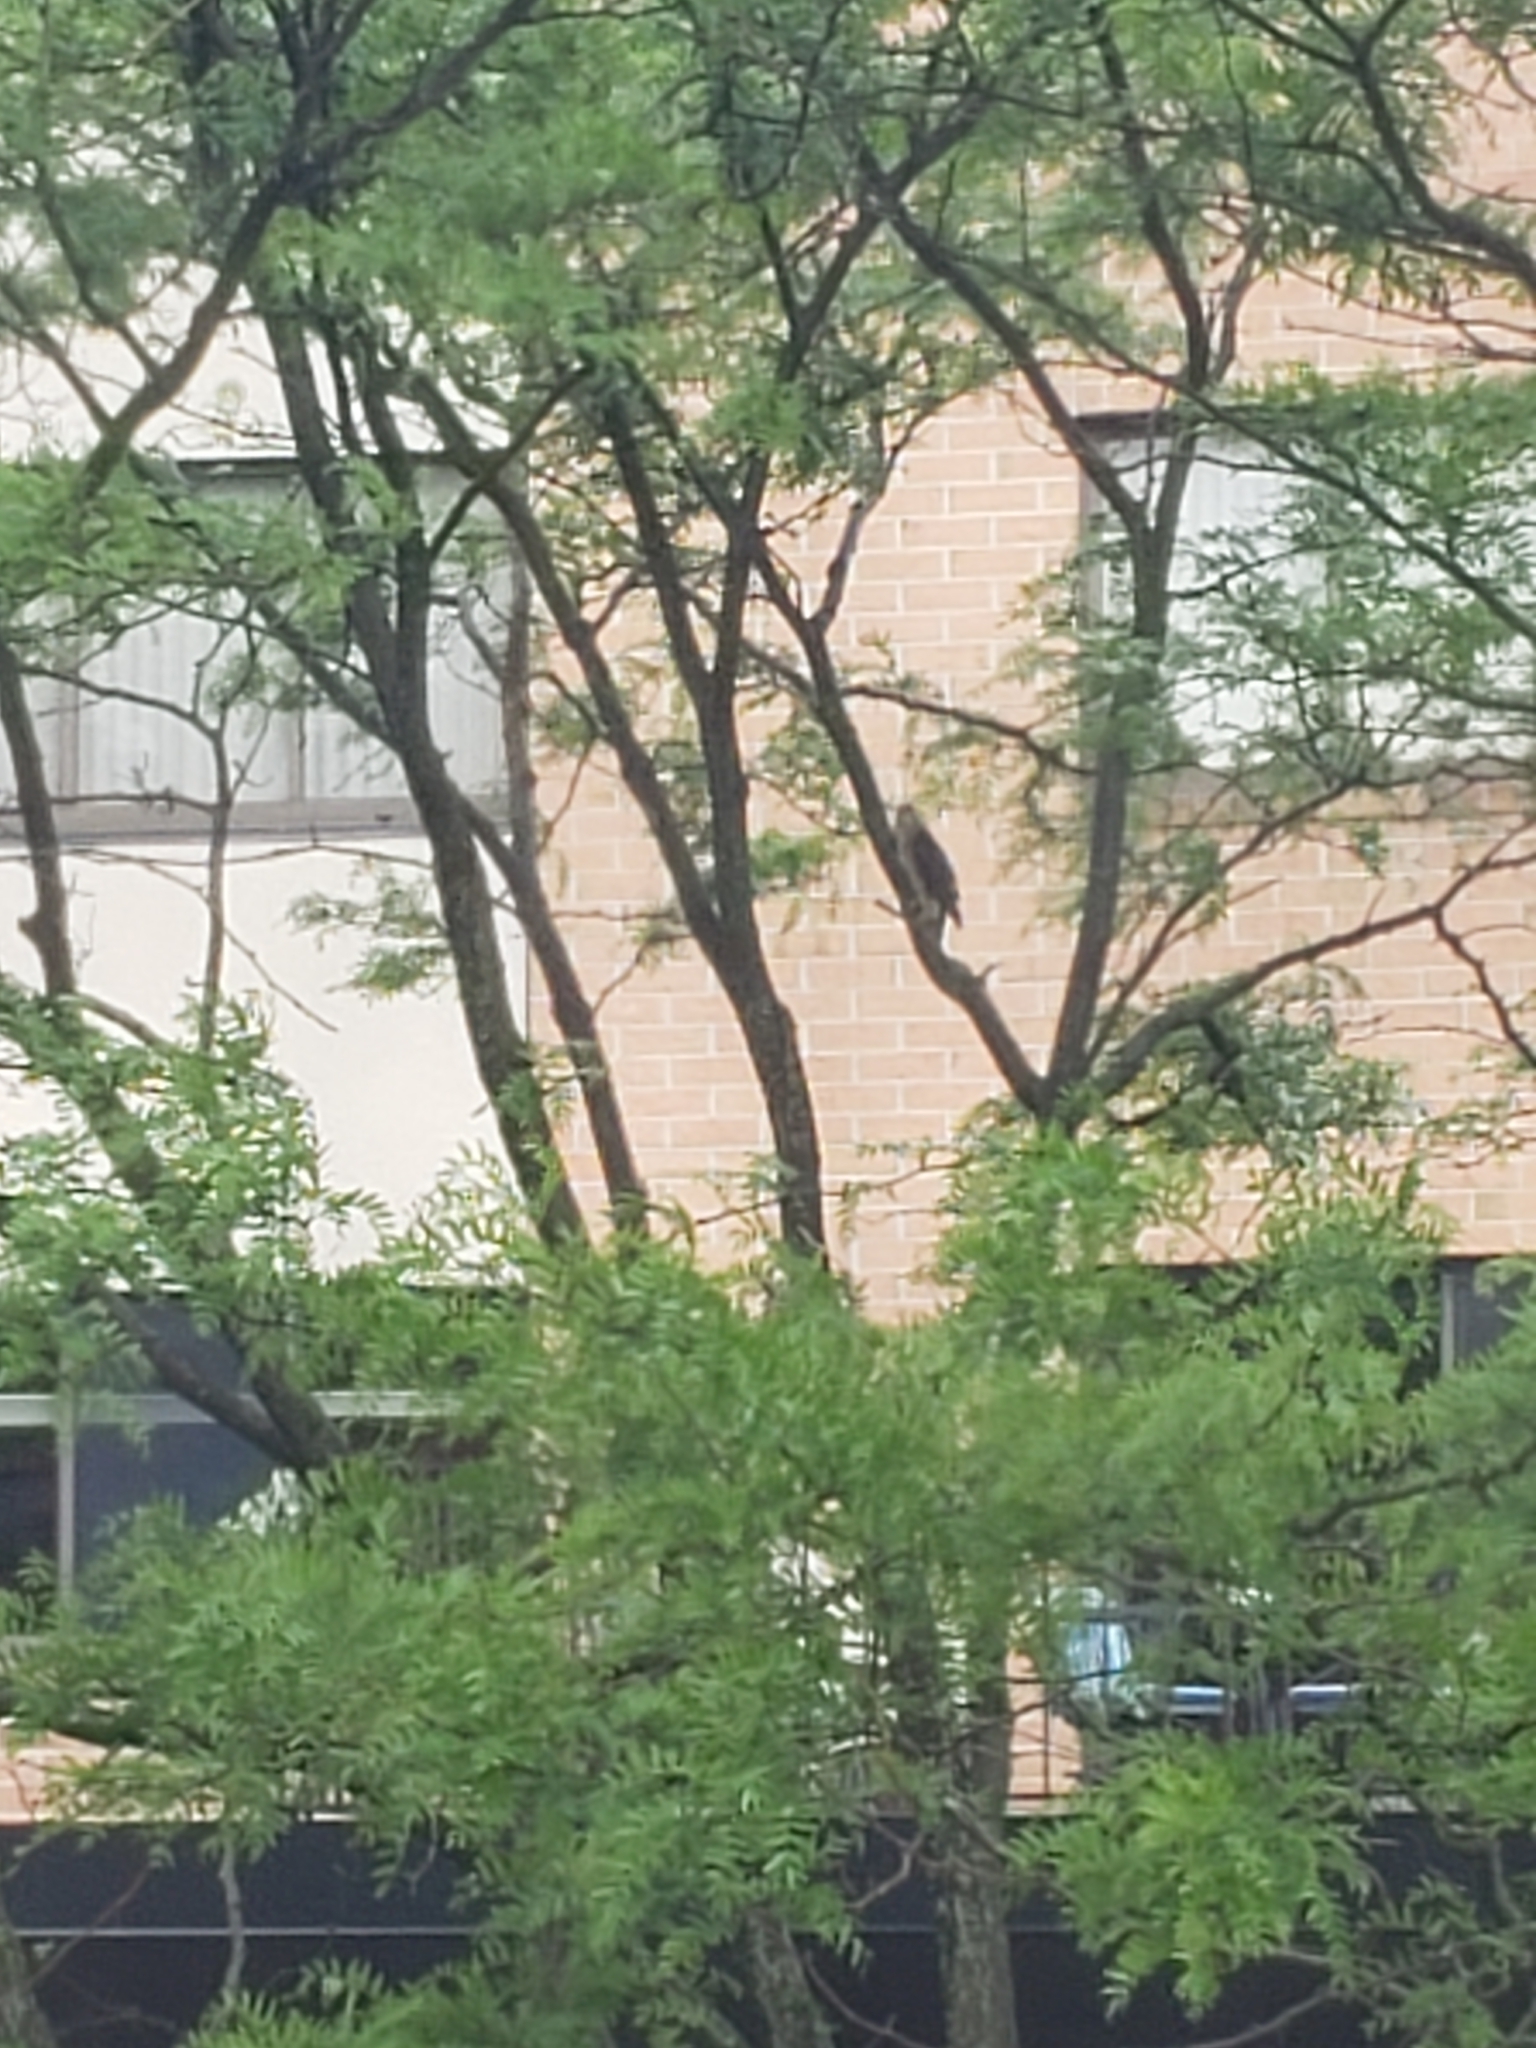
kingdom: Animalia
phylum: Chordata
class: Aves
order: Accipitriformes
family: Accipitridae
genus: Accipiter
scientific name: Accipiter cooperii
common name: Cooper's hawk
